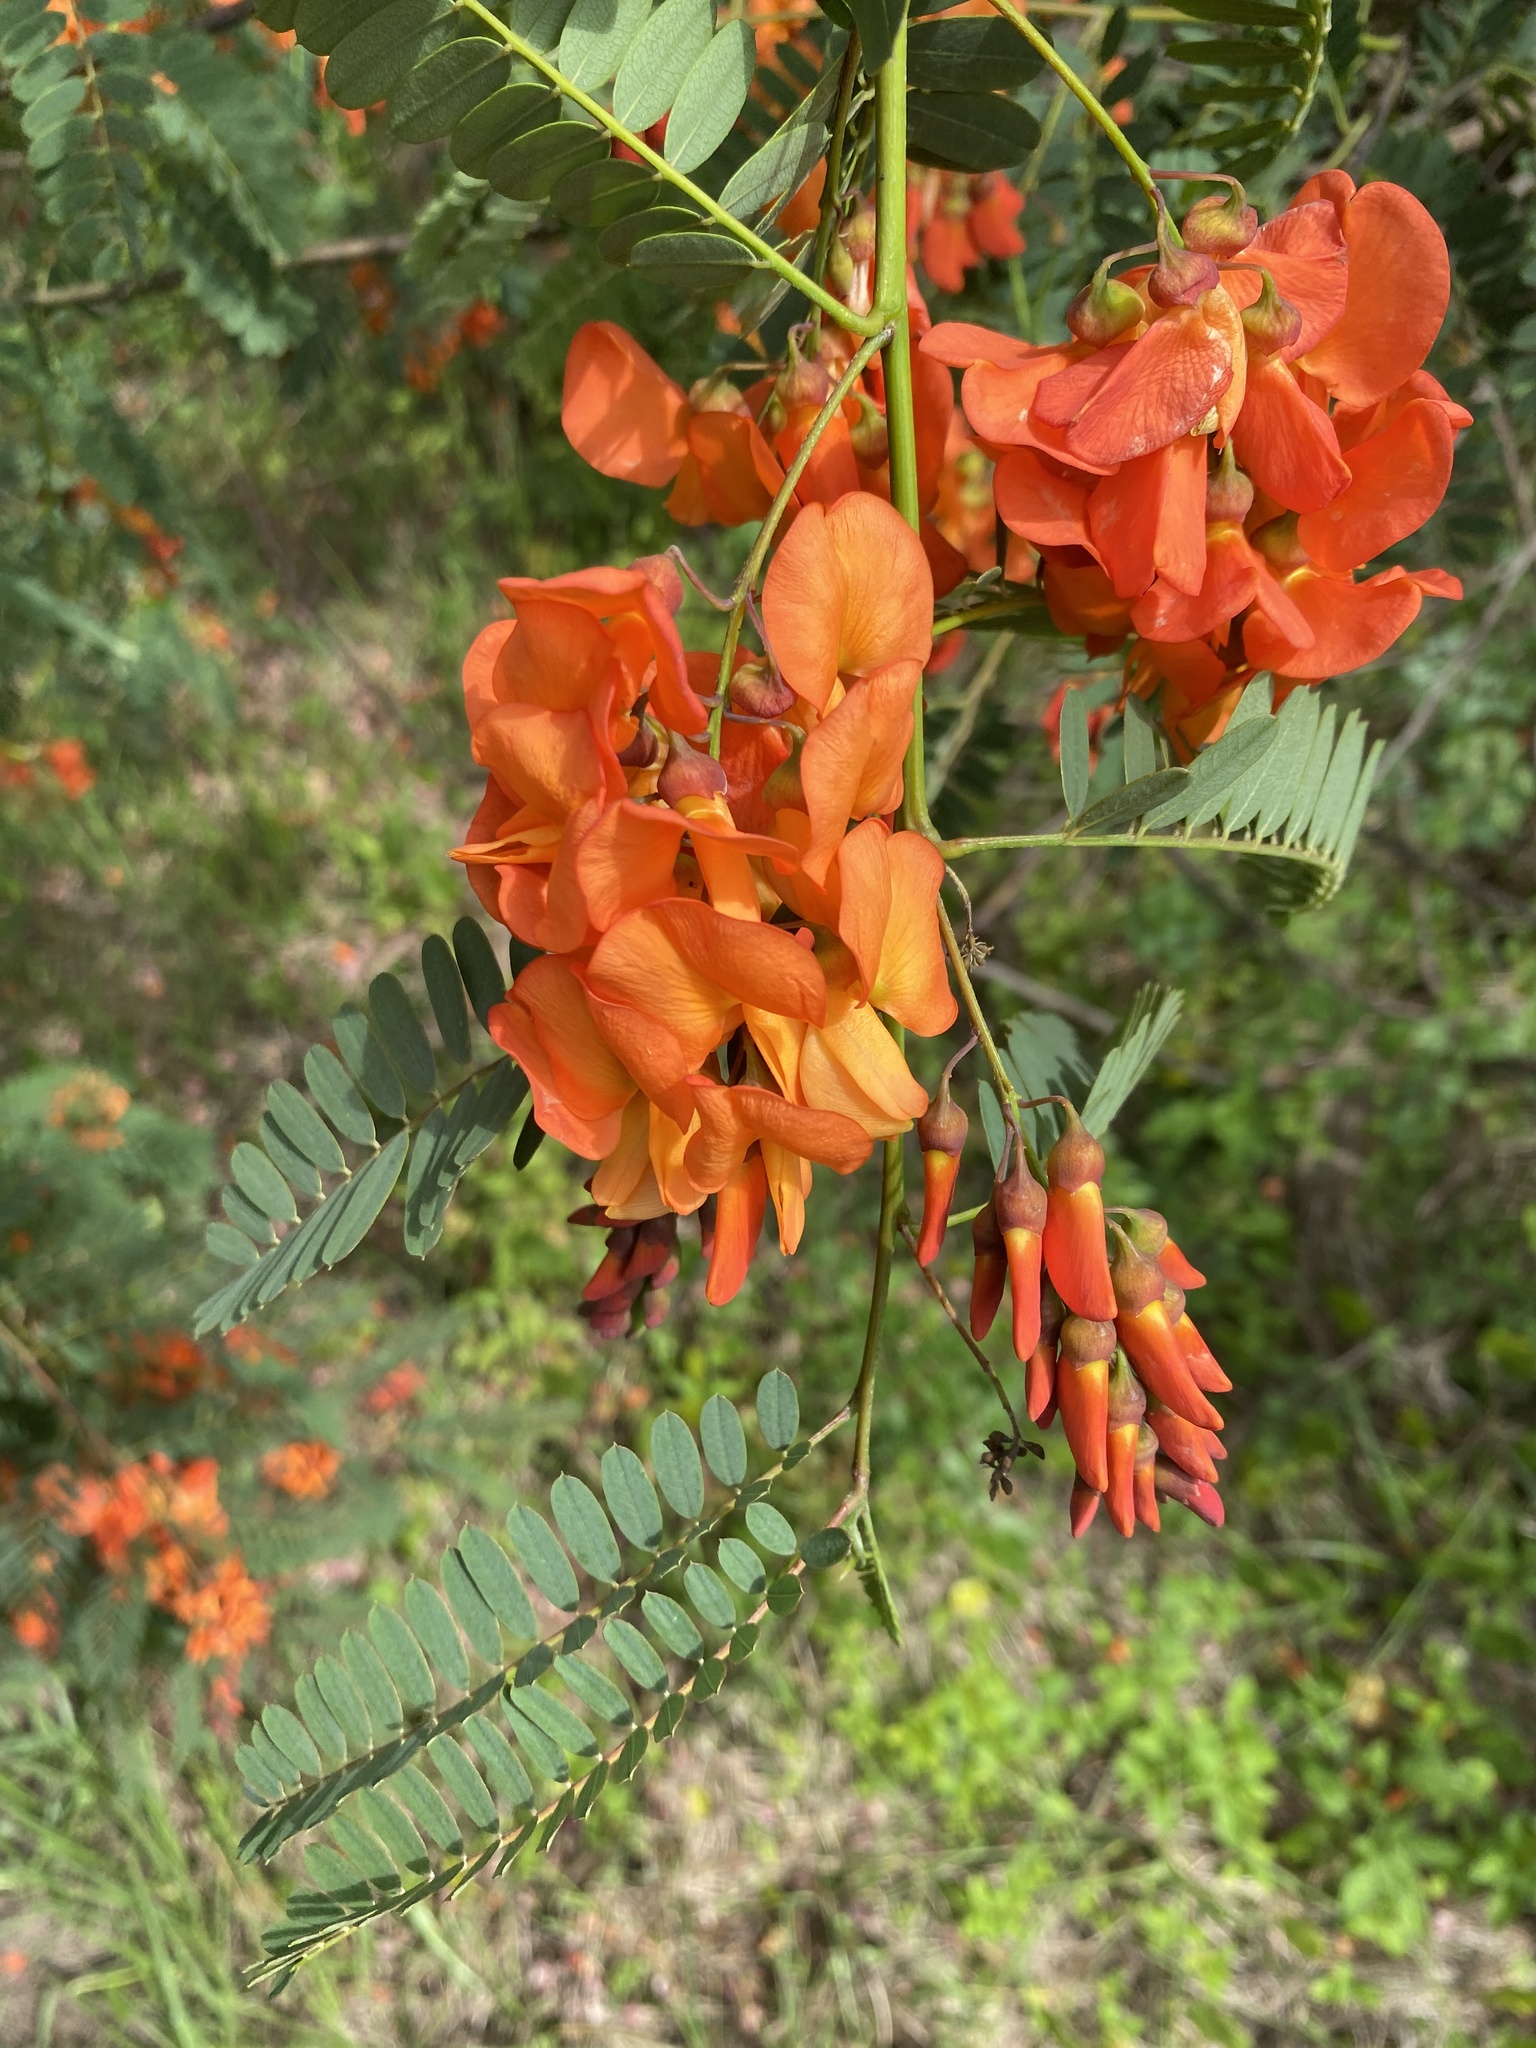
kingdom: Plantae
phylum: Tracheophyta
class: Magnoliopsida
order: Fabales
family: Fabaceae
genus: Sesbania
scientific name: Sesbania punicea
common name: Rattlebox
